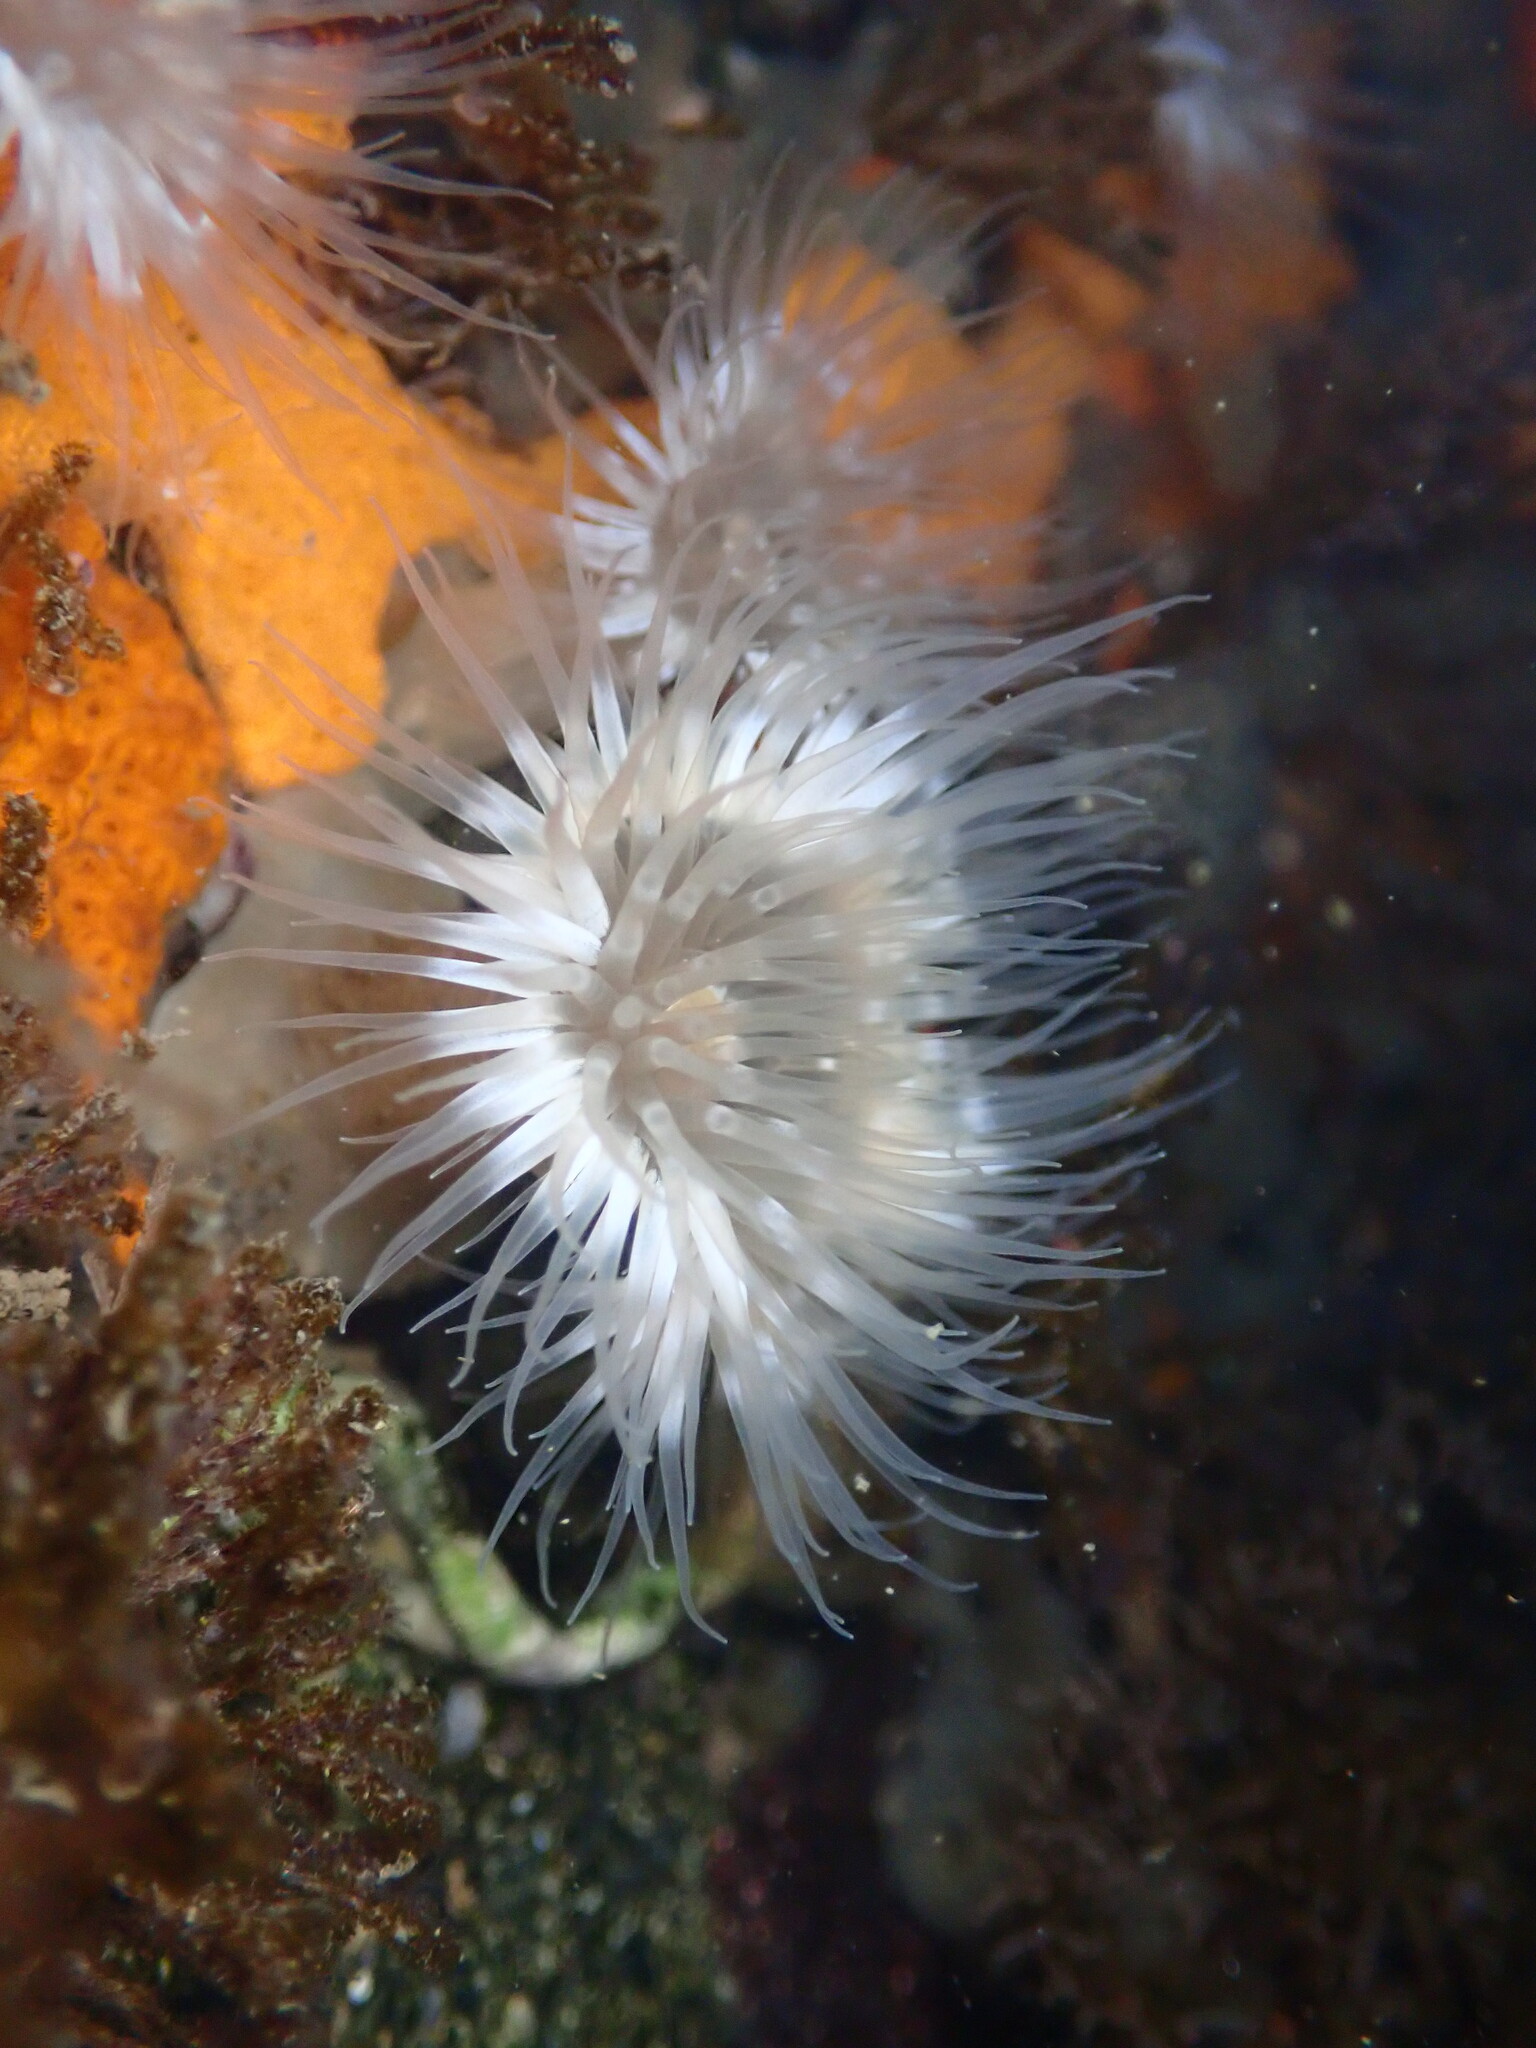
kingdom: Animalia
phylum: Cnidaria
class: Anthozoa
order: Actiniaria
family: Metridiidae
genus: Metridium
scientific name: Metridium senile
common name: Clonal plumose anemone
